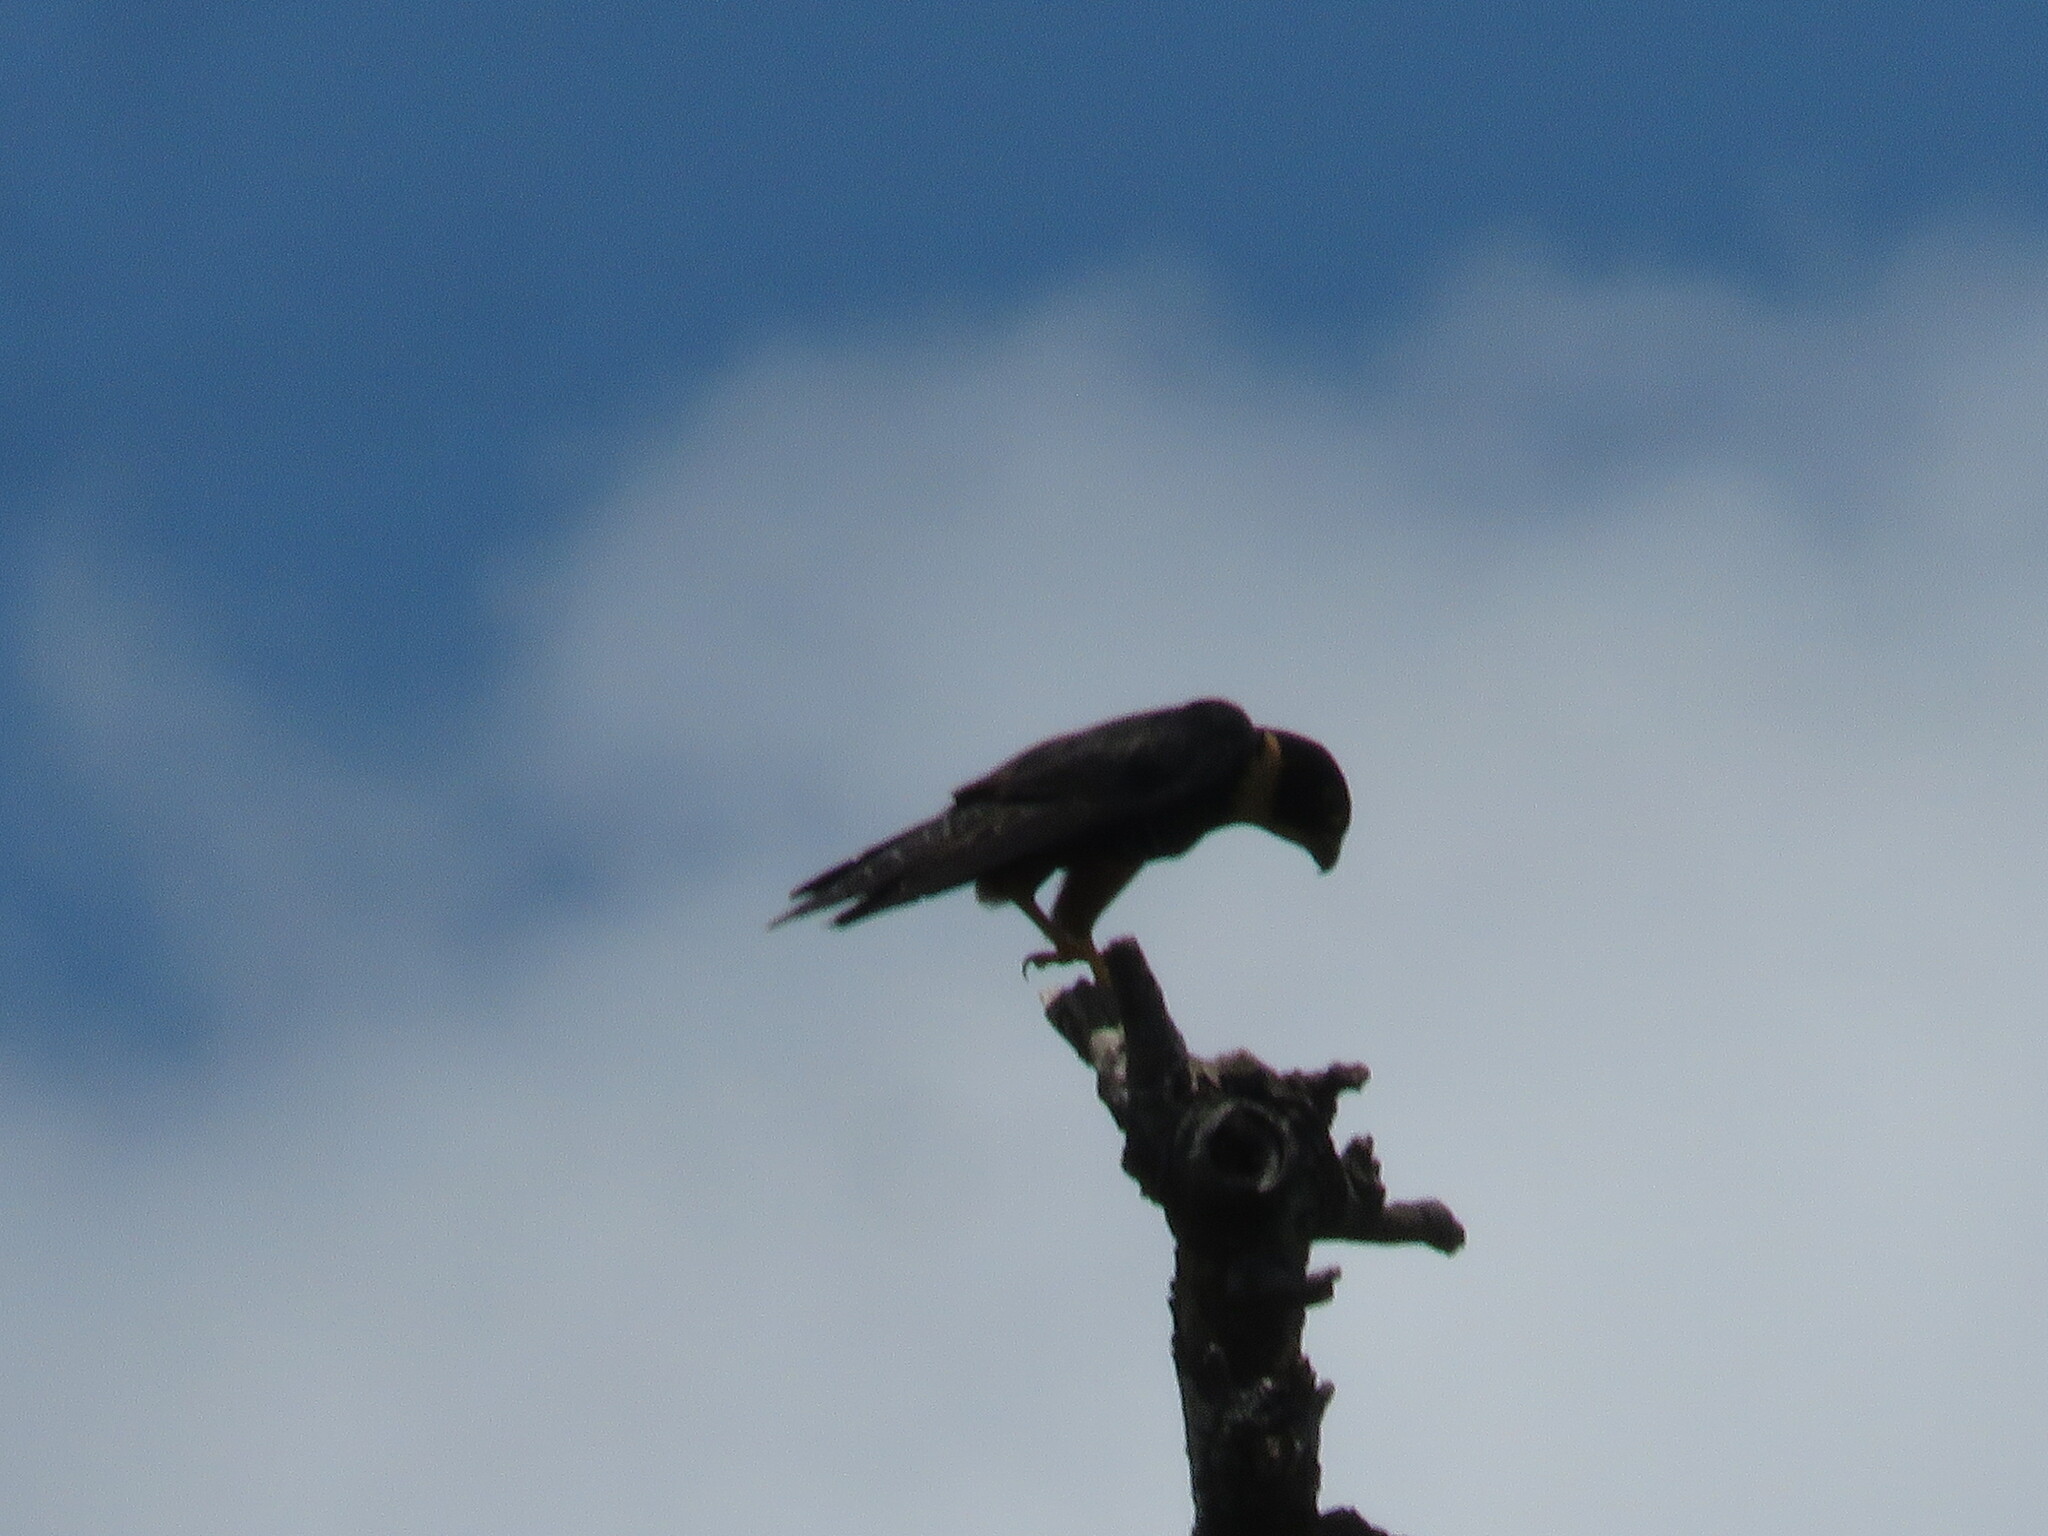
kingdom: Animalia
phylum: Chordata
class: Aves
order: Falconiformes
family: Falconidae
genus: Falco
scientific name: Falco rufigularis
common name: Bat falcon
